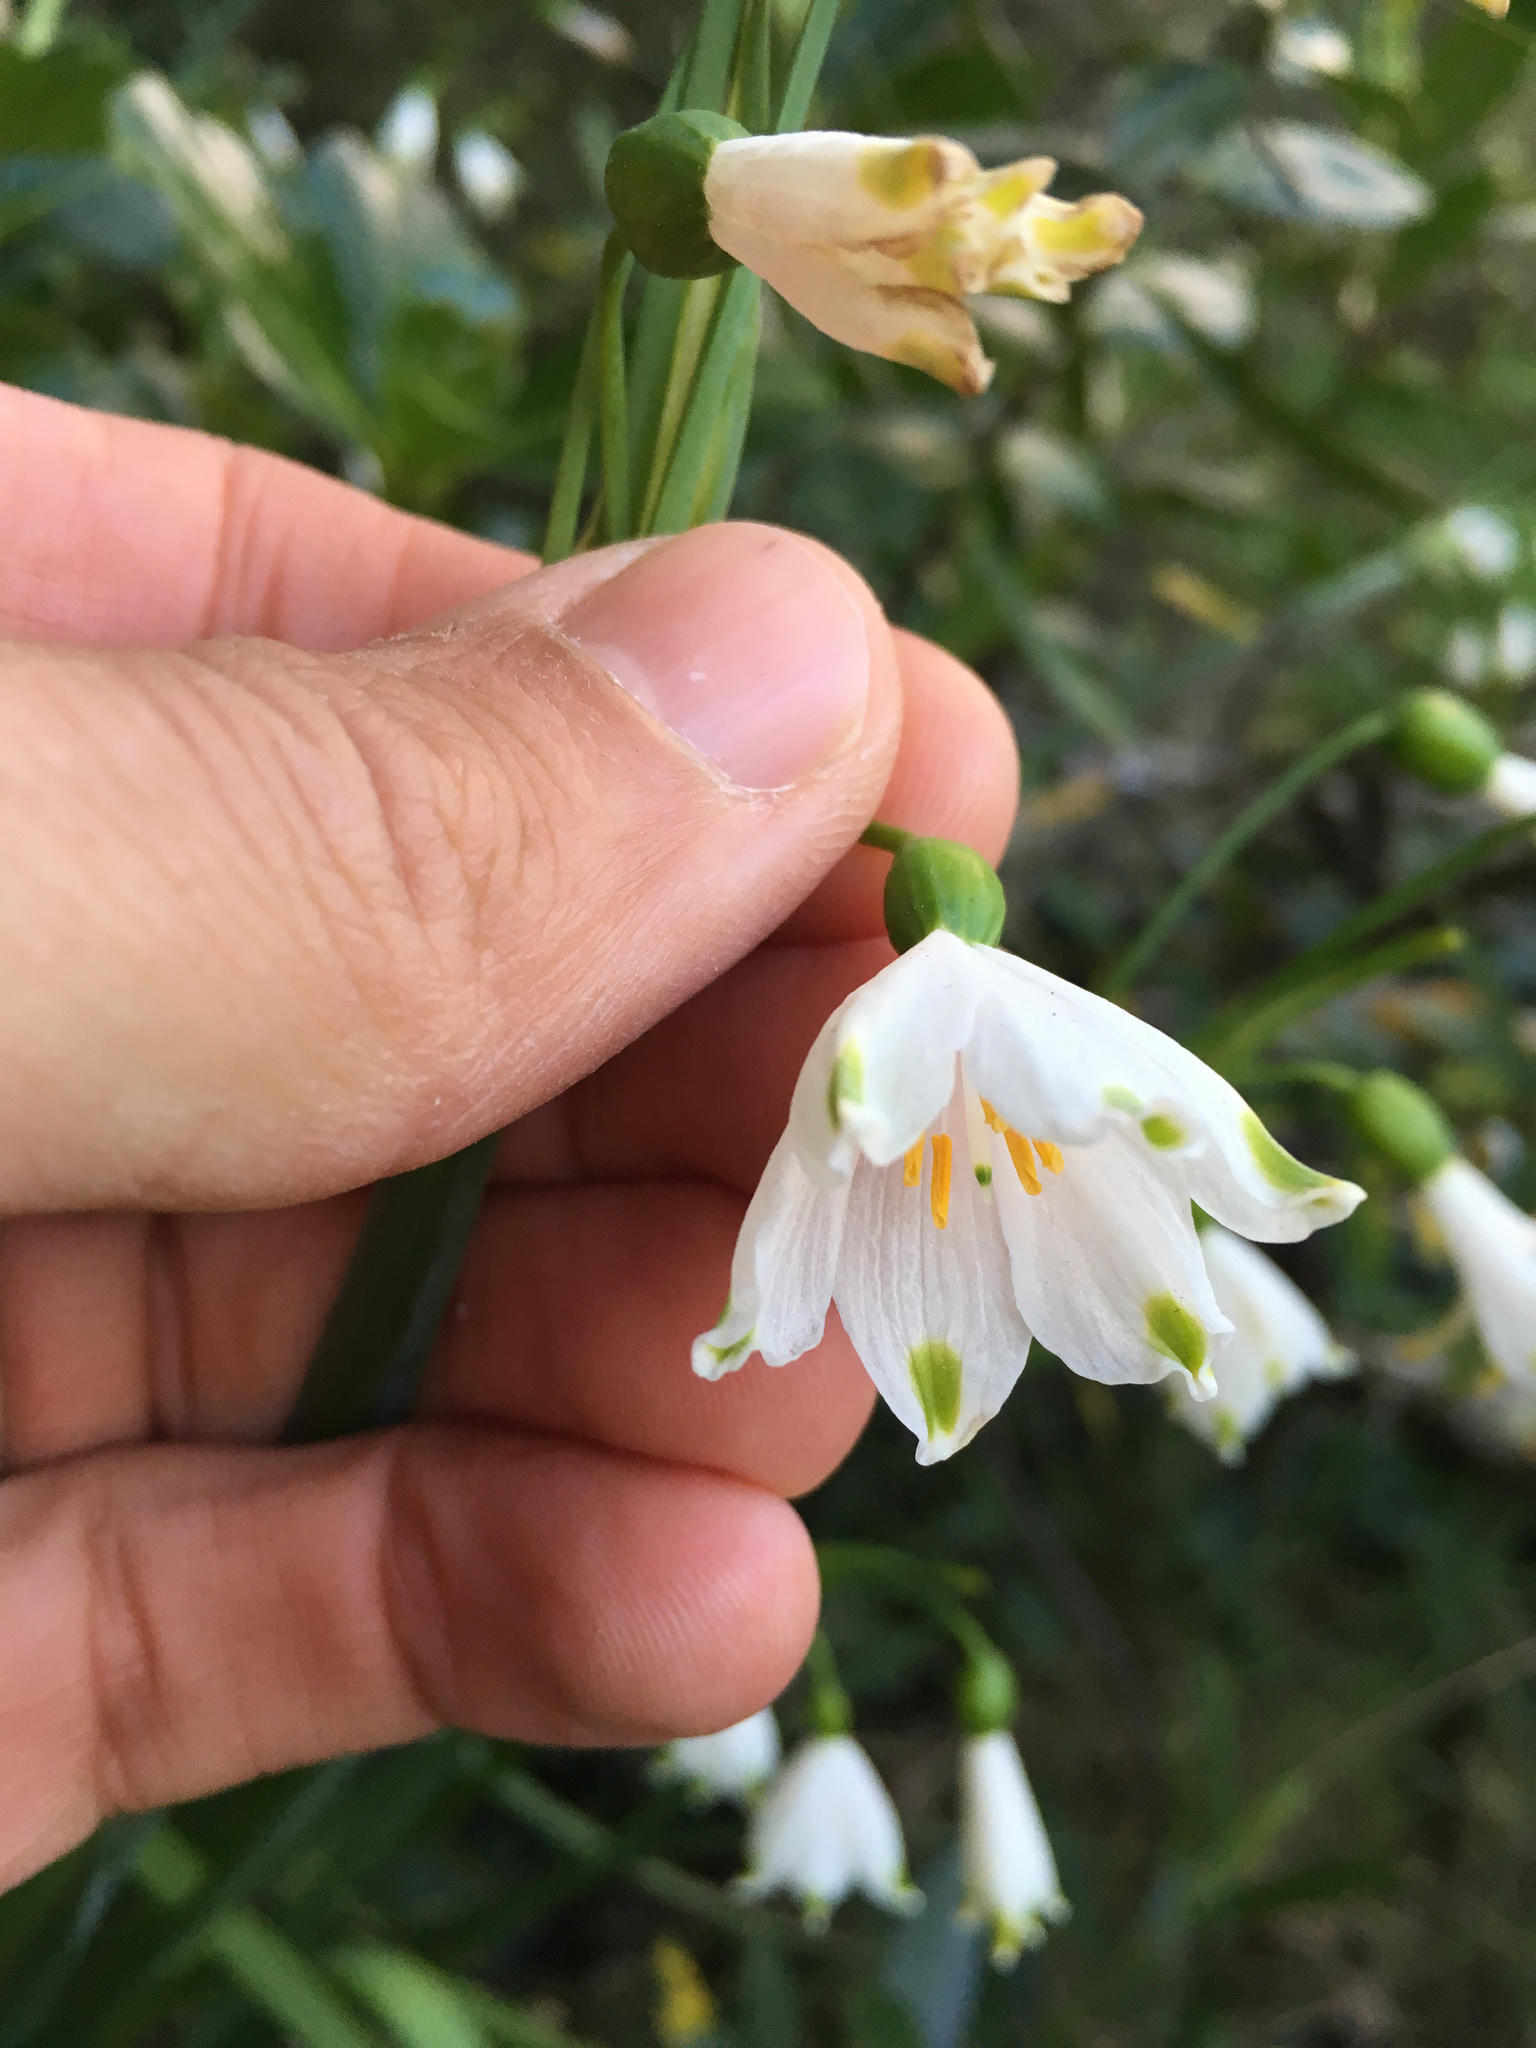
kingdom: Plantae
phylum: Tracheophyta
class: Liliopsida
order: Asparagales
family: Amaryllidaceae
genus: Leucojum
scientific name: Leucojum aestivum
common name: Summer snowflake
